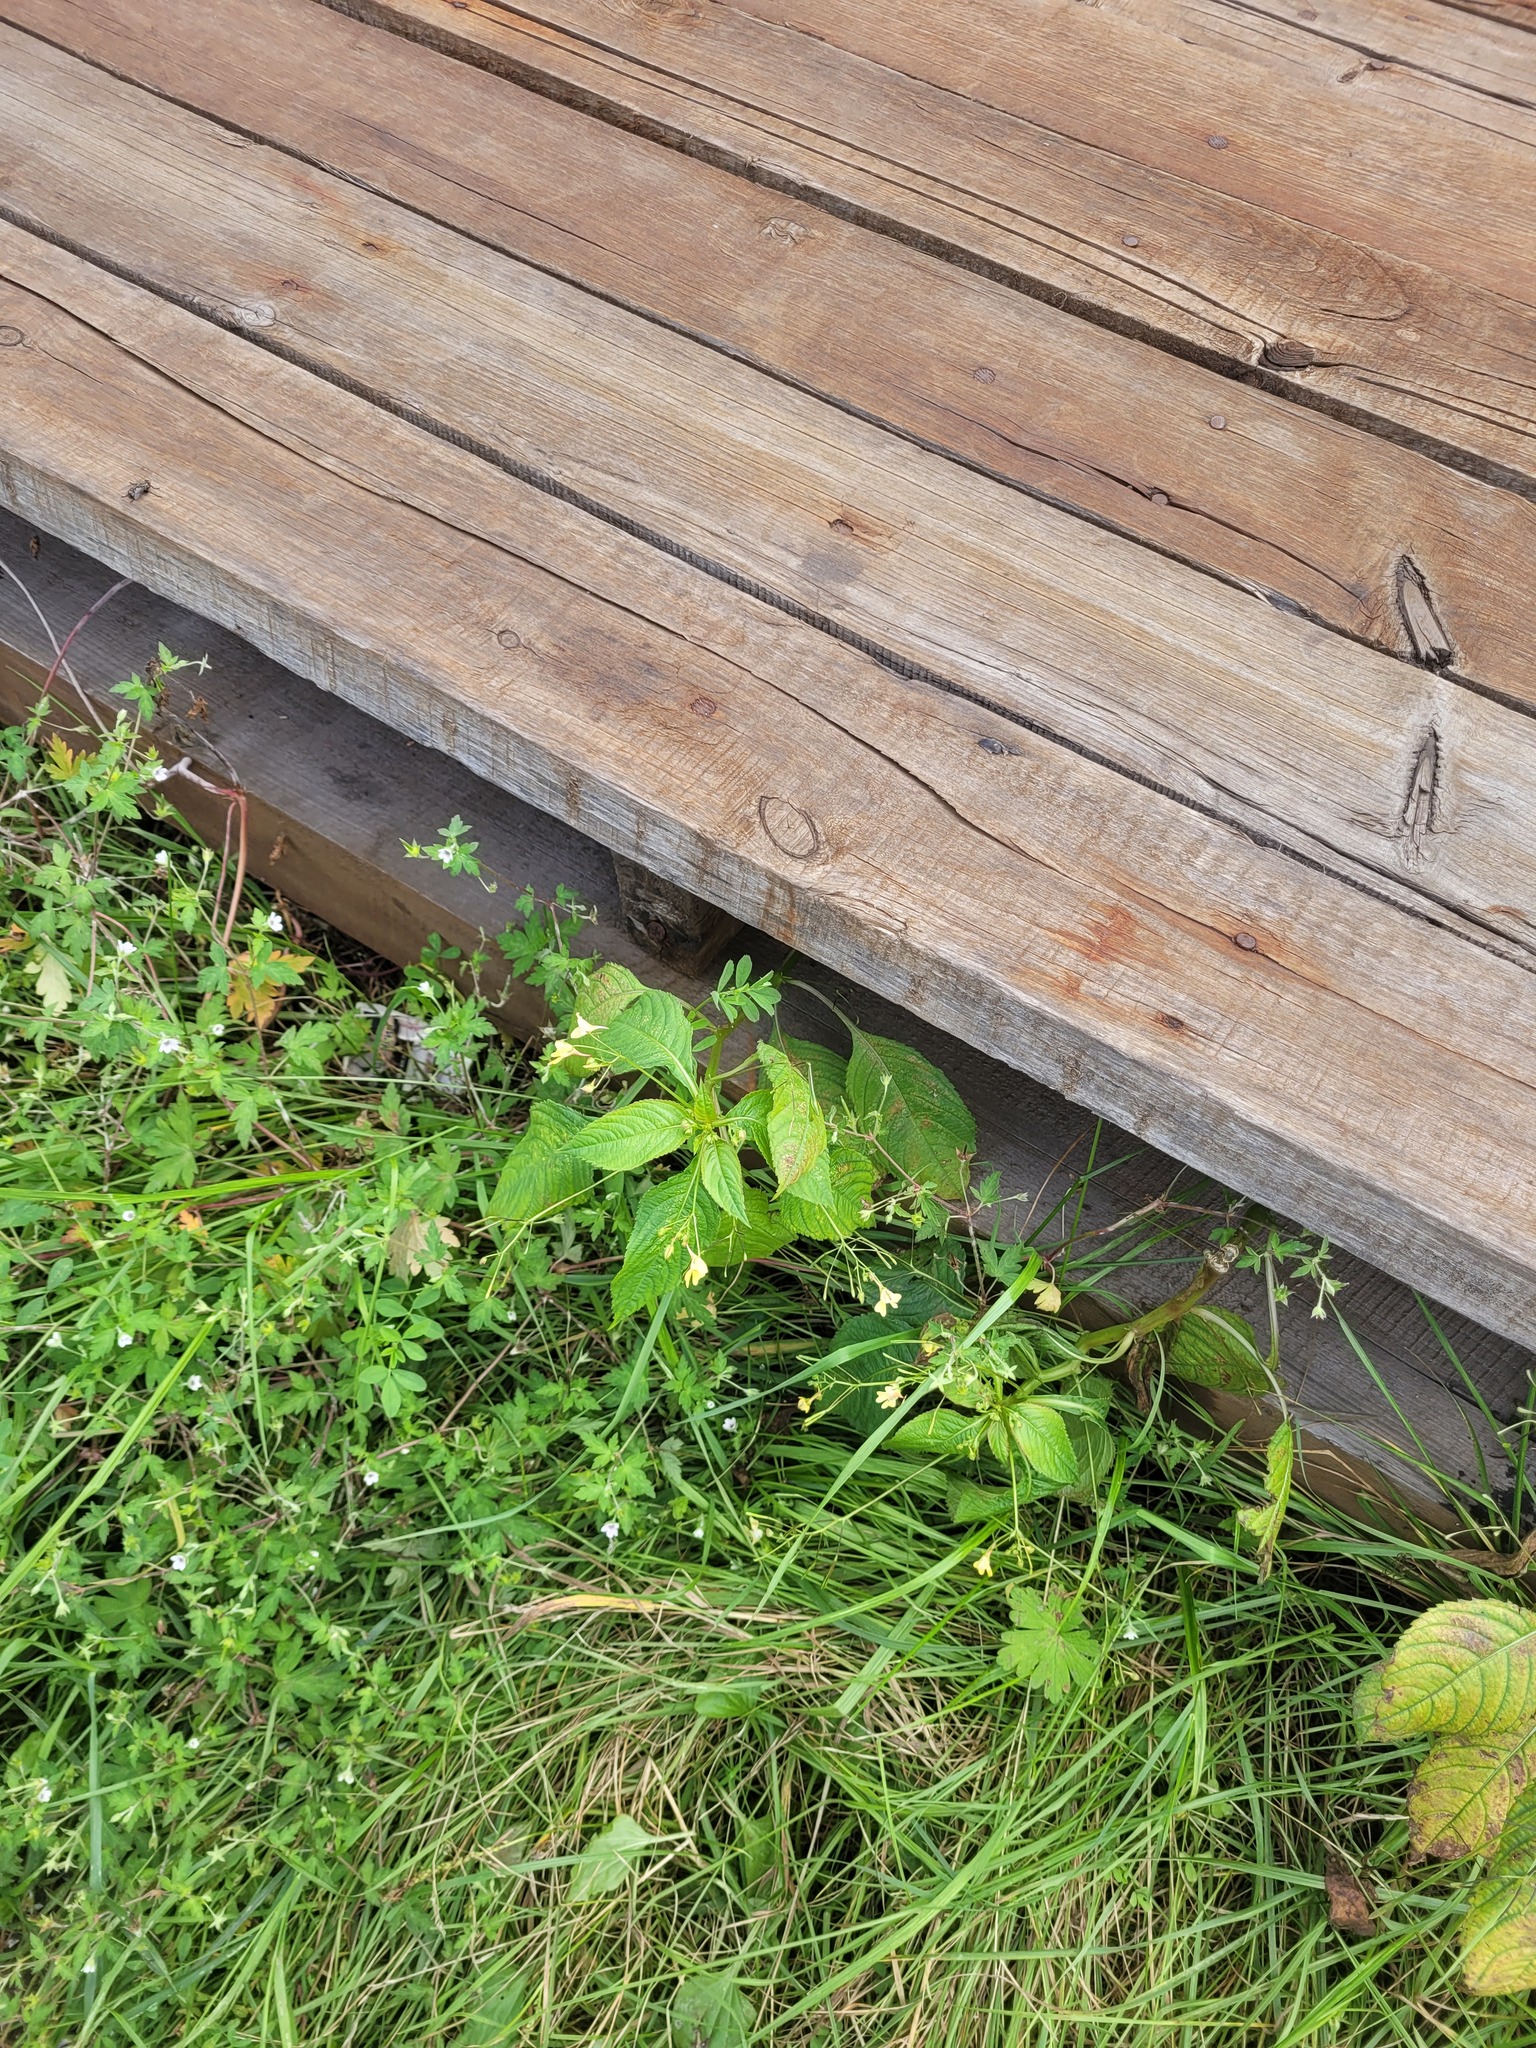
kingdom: Plantae
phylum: Tracheophyta
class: Magnoliopsida
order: Ericales
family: Balsaminaceae
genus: Impatiens
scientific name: Impatiens parviflora
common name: Small balsam
